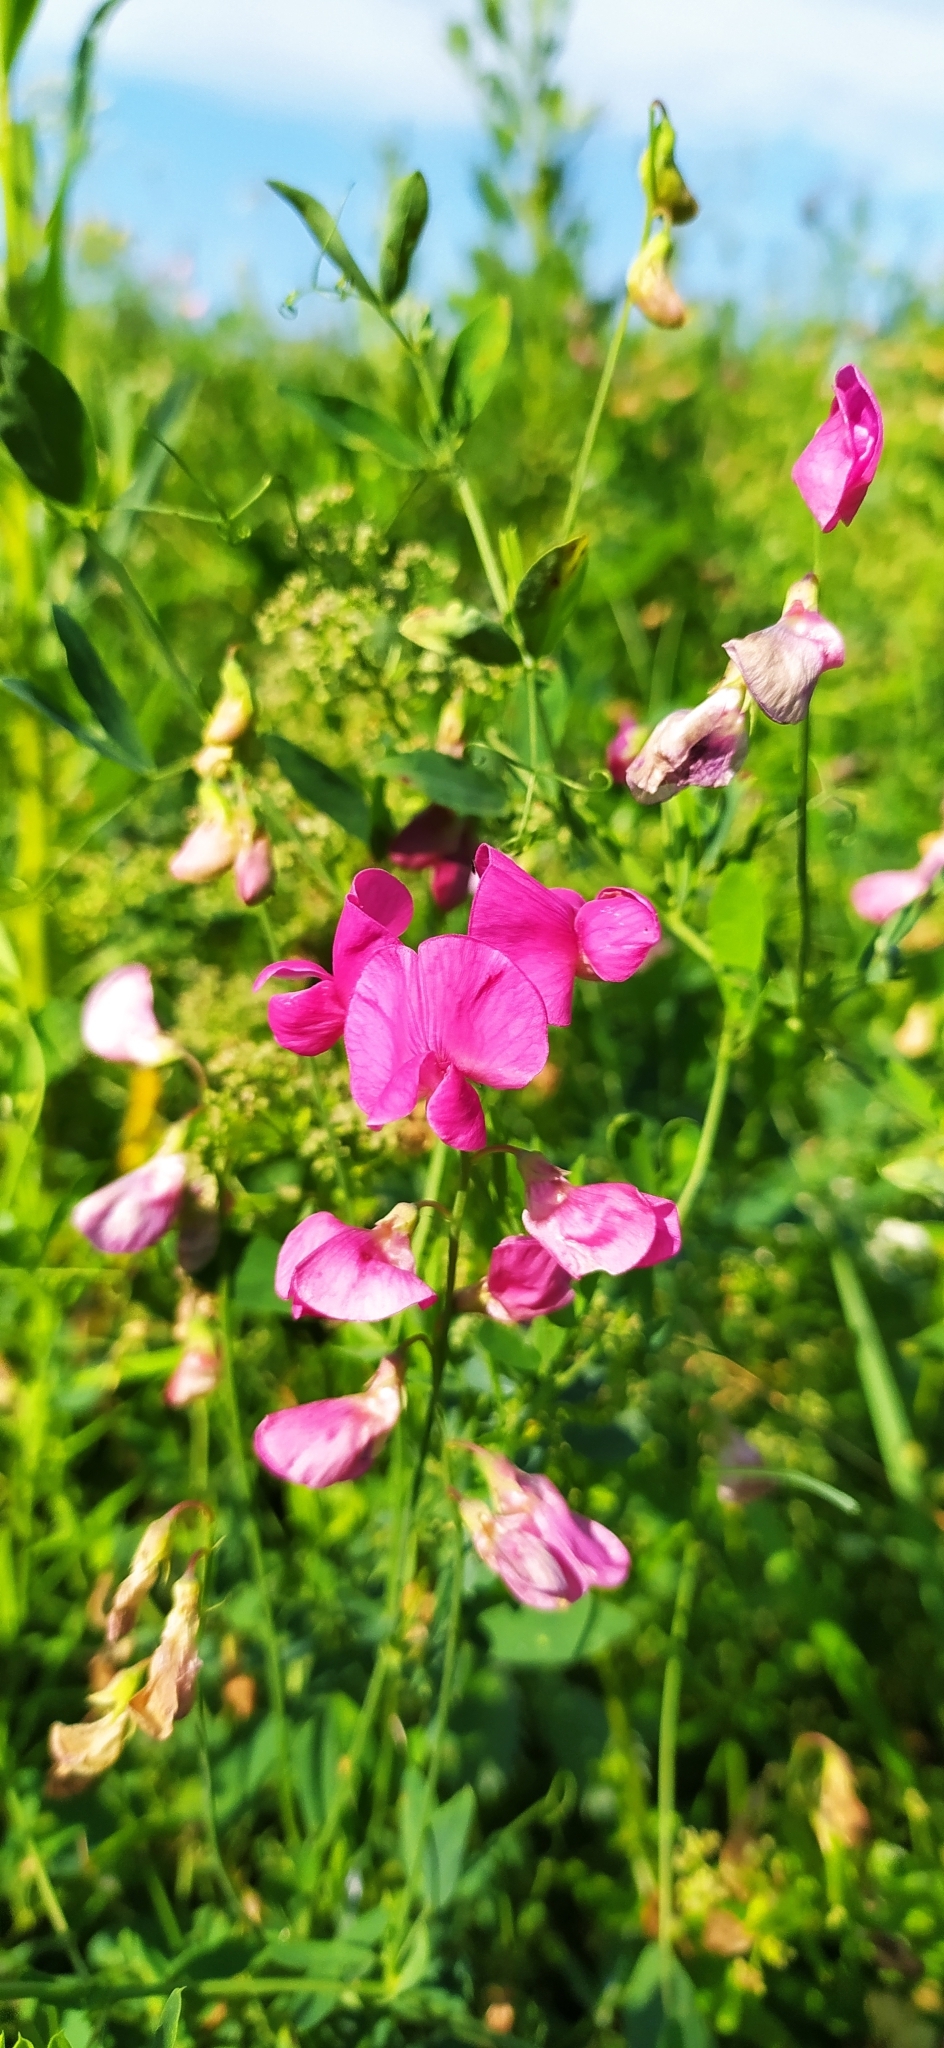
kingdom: Plantae
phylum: Tracheophyta
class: Magnoliopsida
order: Fabales
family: Fabaceae
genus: Lathyrus
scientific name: Lathyrus tuberosus
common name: Tuberous pea
